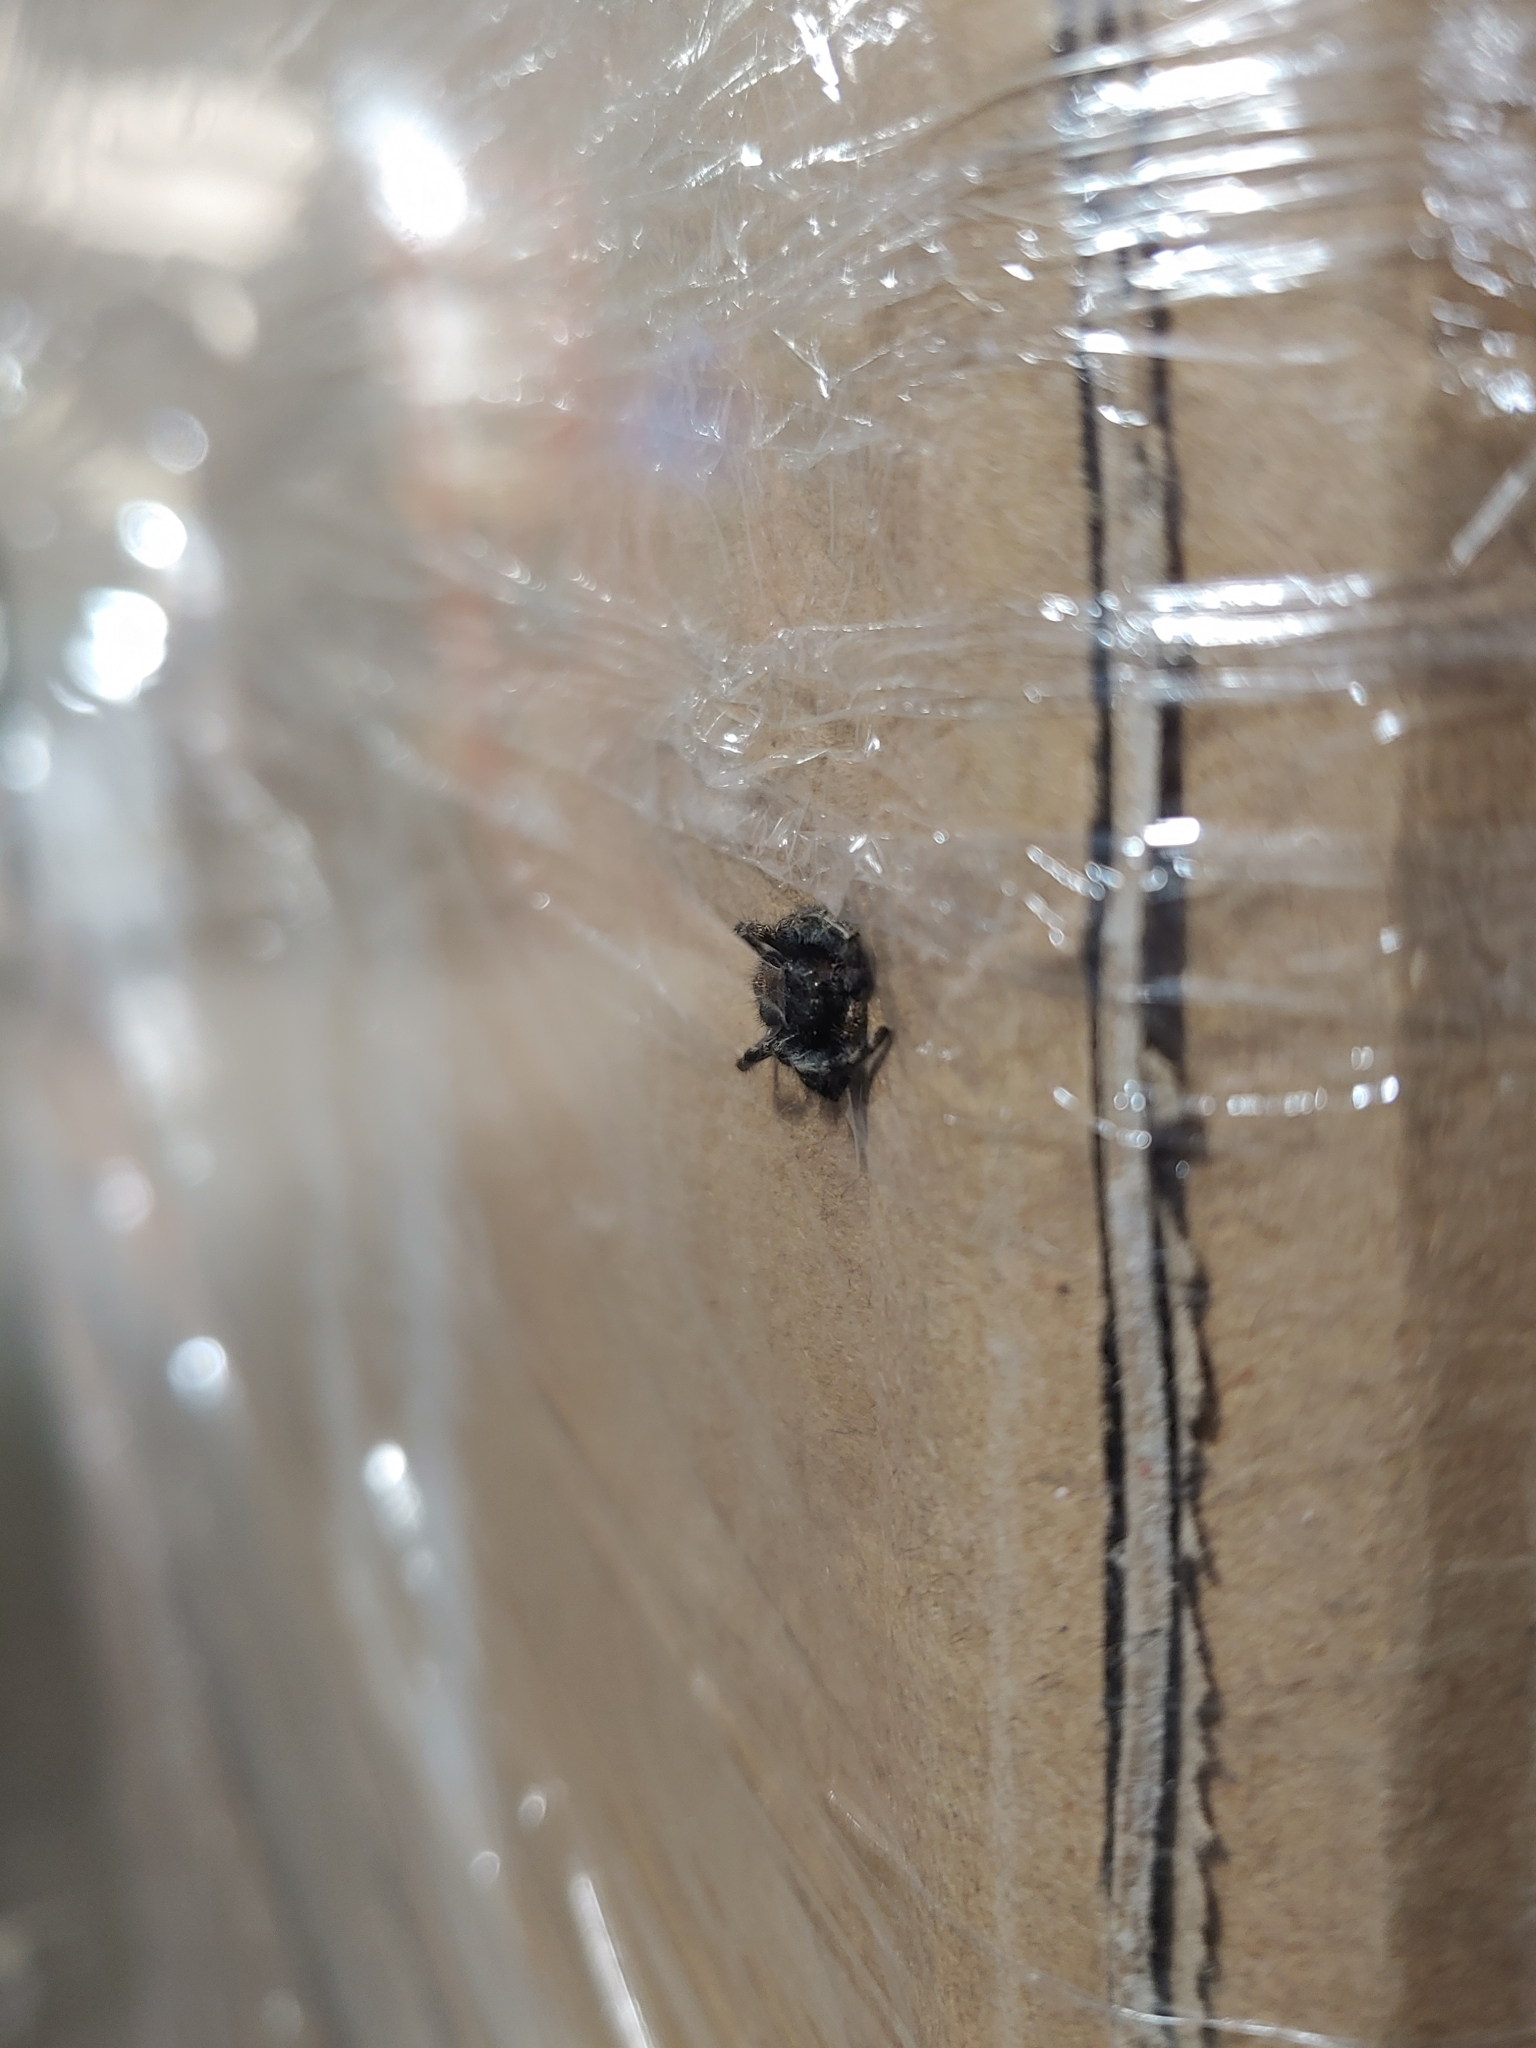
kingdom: Animalia
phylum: Arthropoda
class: Arachnida
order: Araneae
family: Salticidae
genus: Phidippus
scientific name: Phidippus audax
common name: Bold jumper
